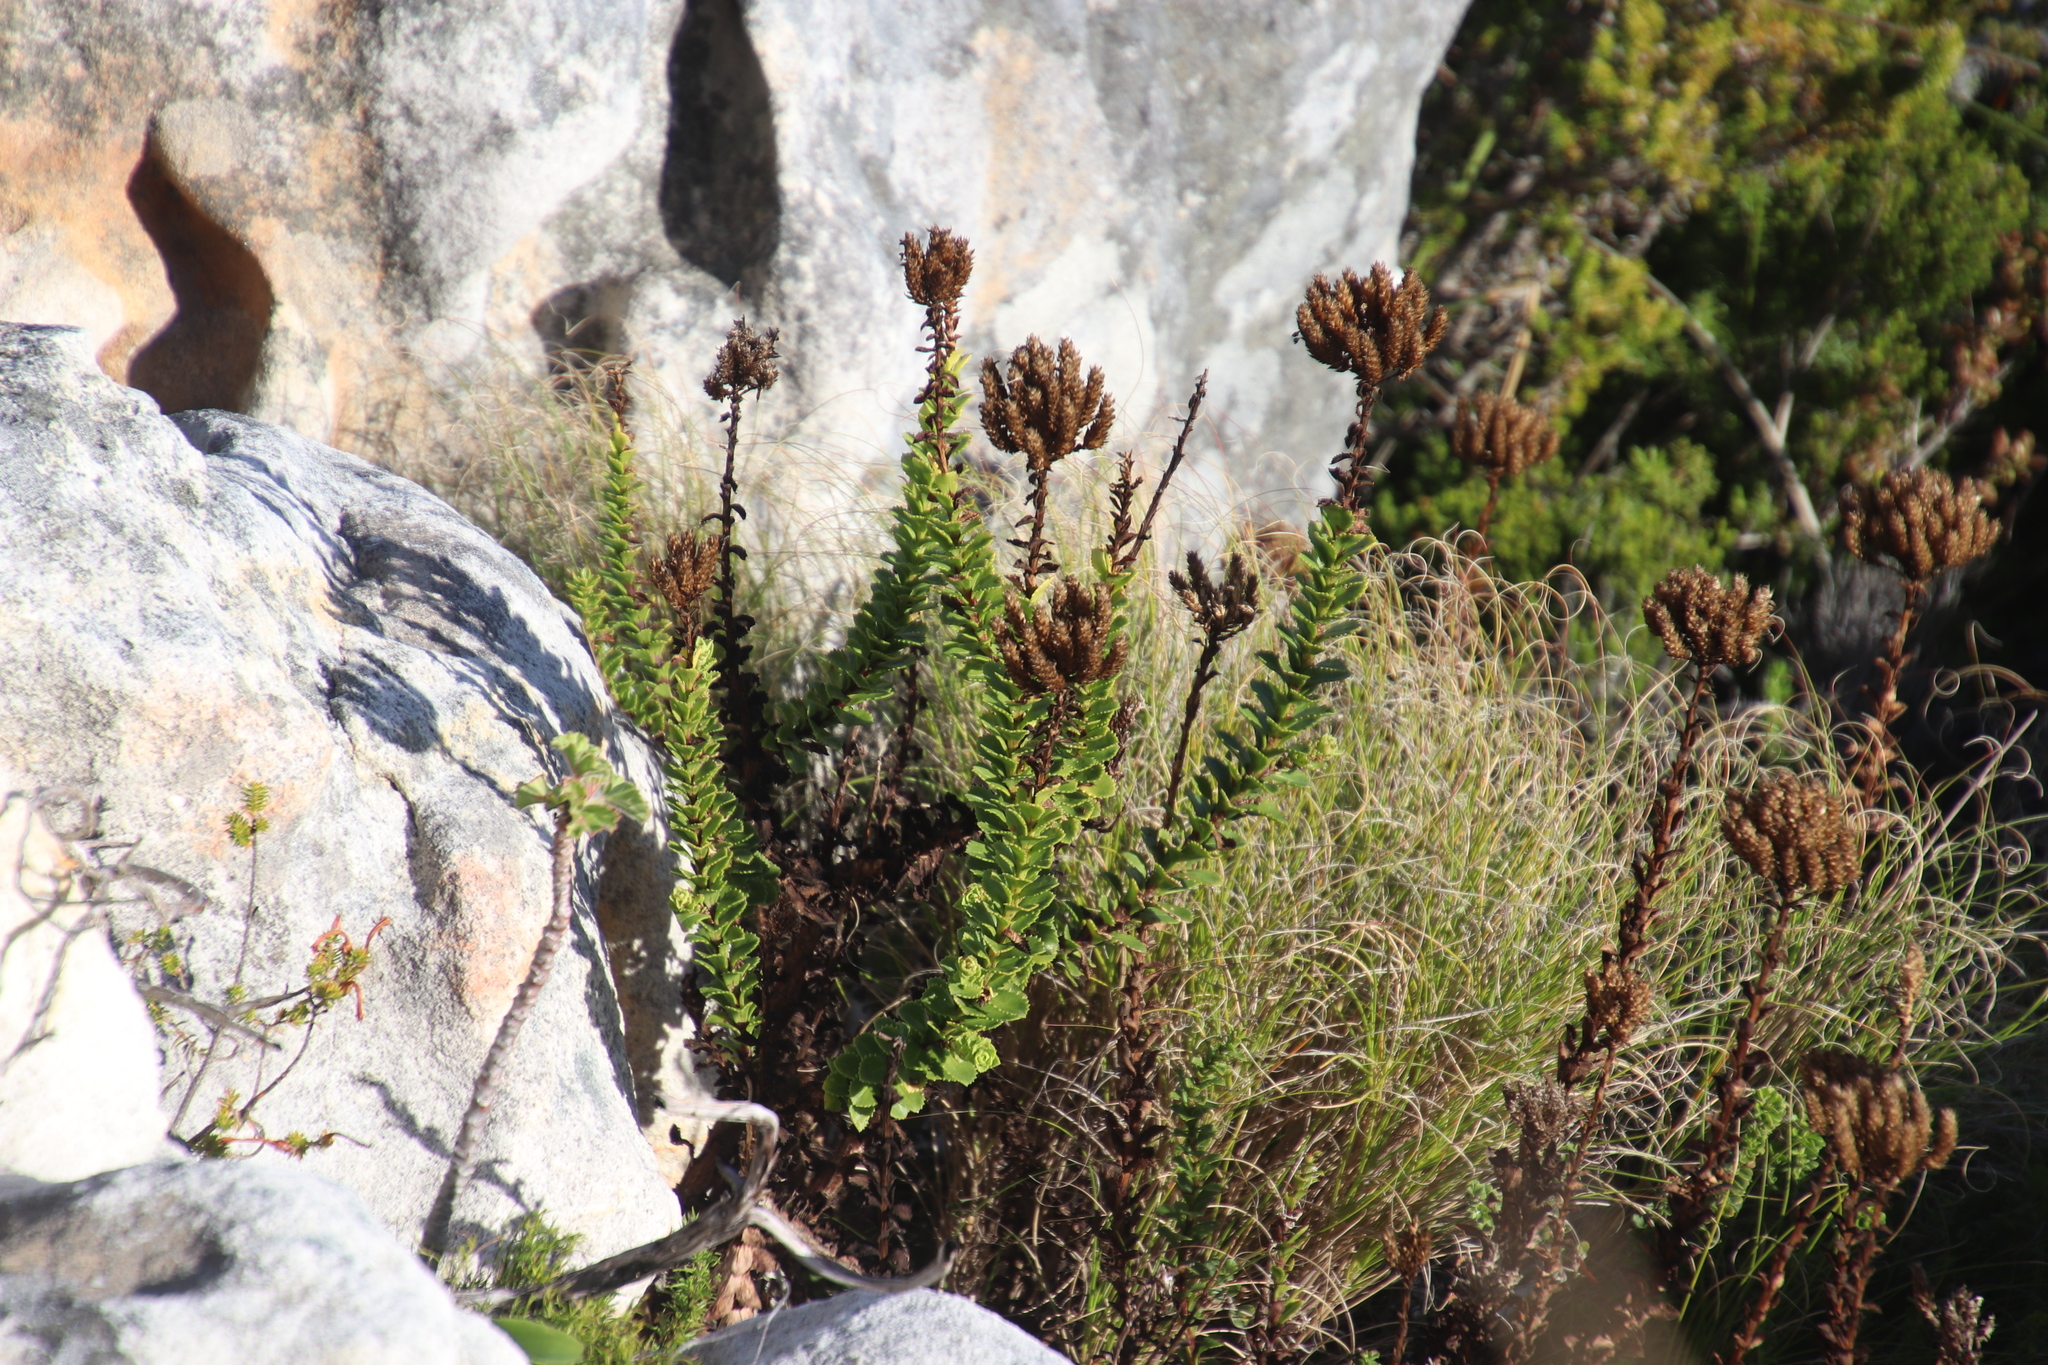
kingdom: Plantae
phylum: Tracheophyta
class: Magnoliopsida
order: Lamiales
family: Scrophulariaceae
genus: Pseudoselago
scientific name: Pseudoselago serrata
